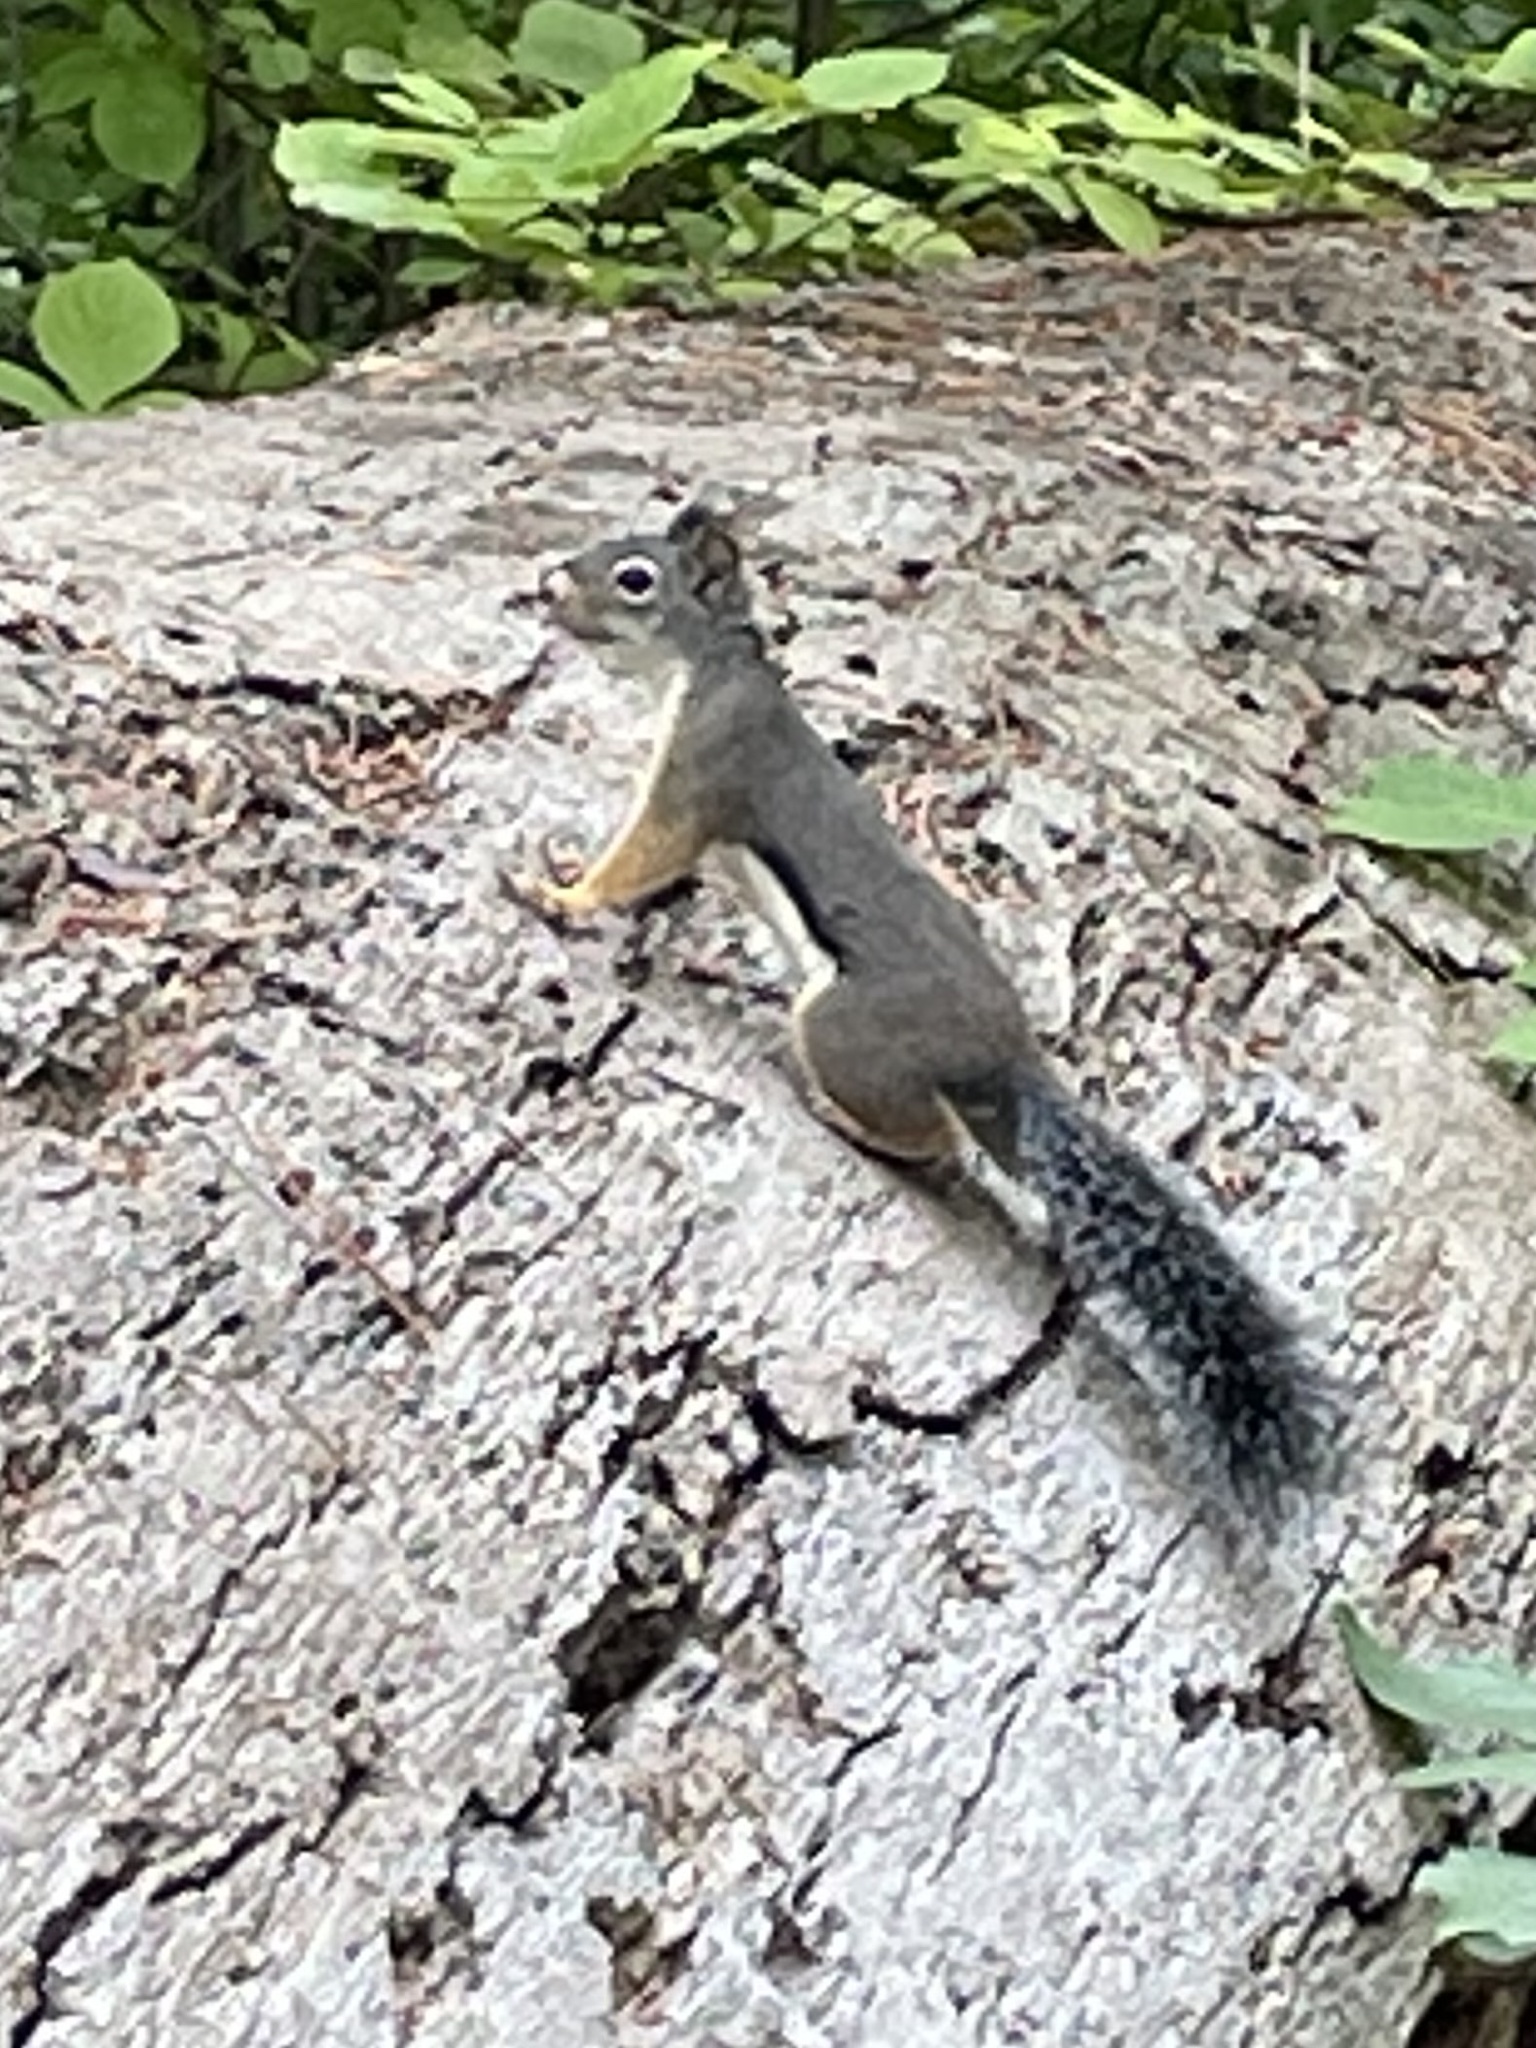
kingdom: Animalia
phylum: Chordata
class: Mammalia
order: Rodentia
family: Sciuridae
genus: Tamiasciurus
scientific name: Tamiasciurus douglasii
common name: Douglas's squirrel
